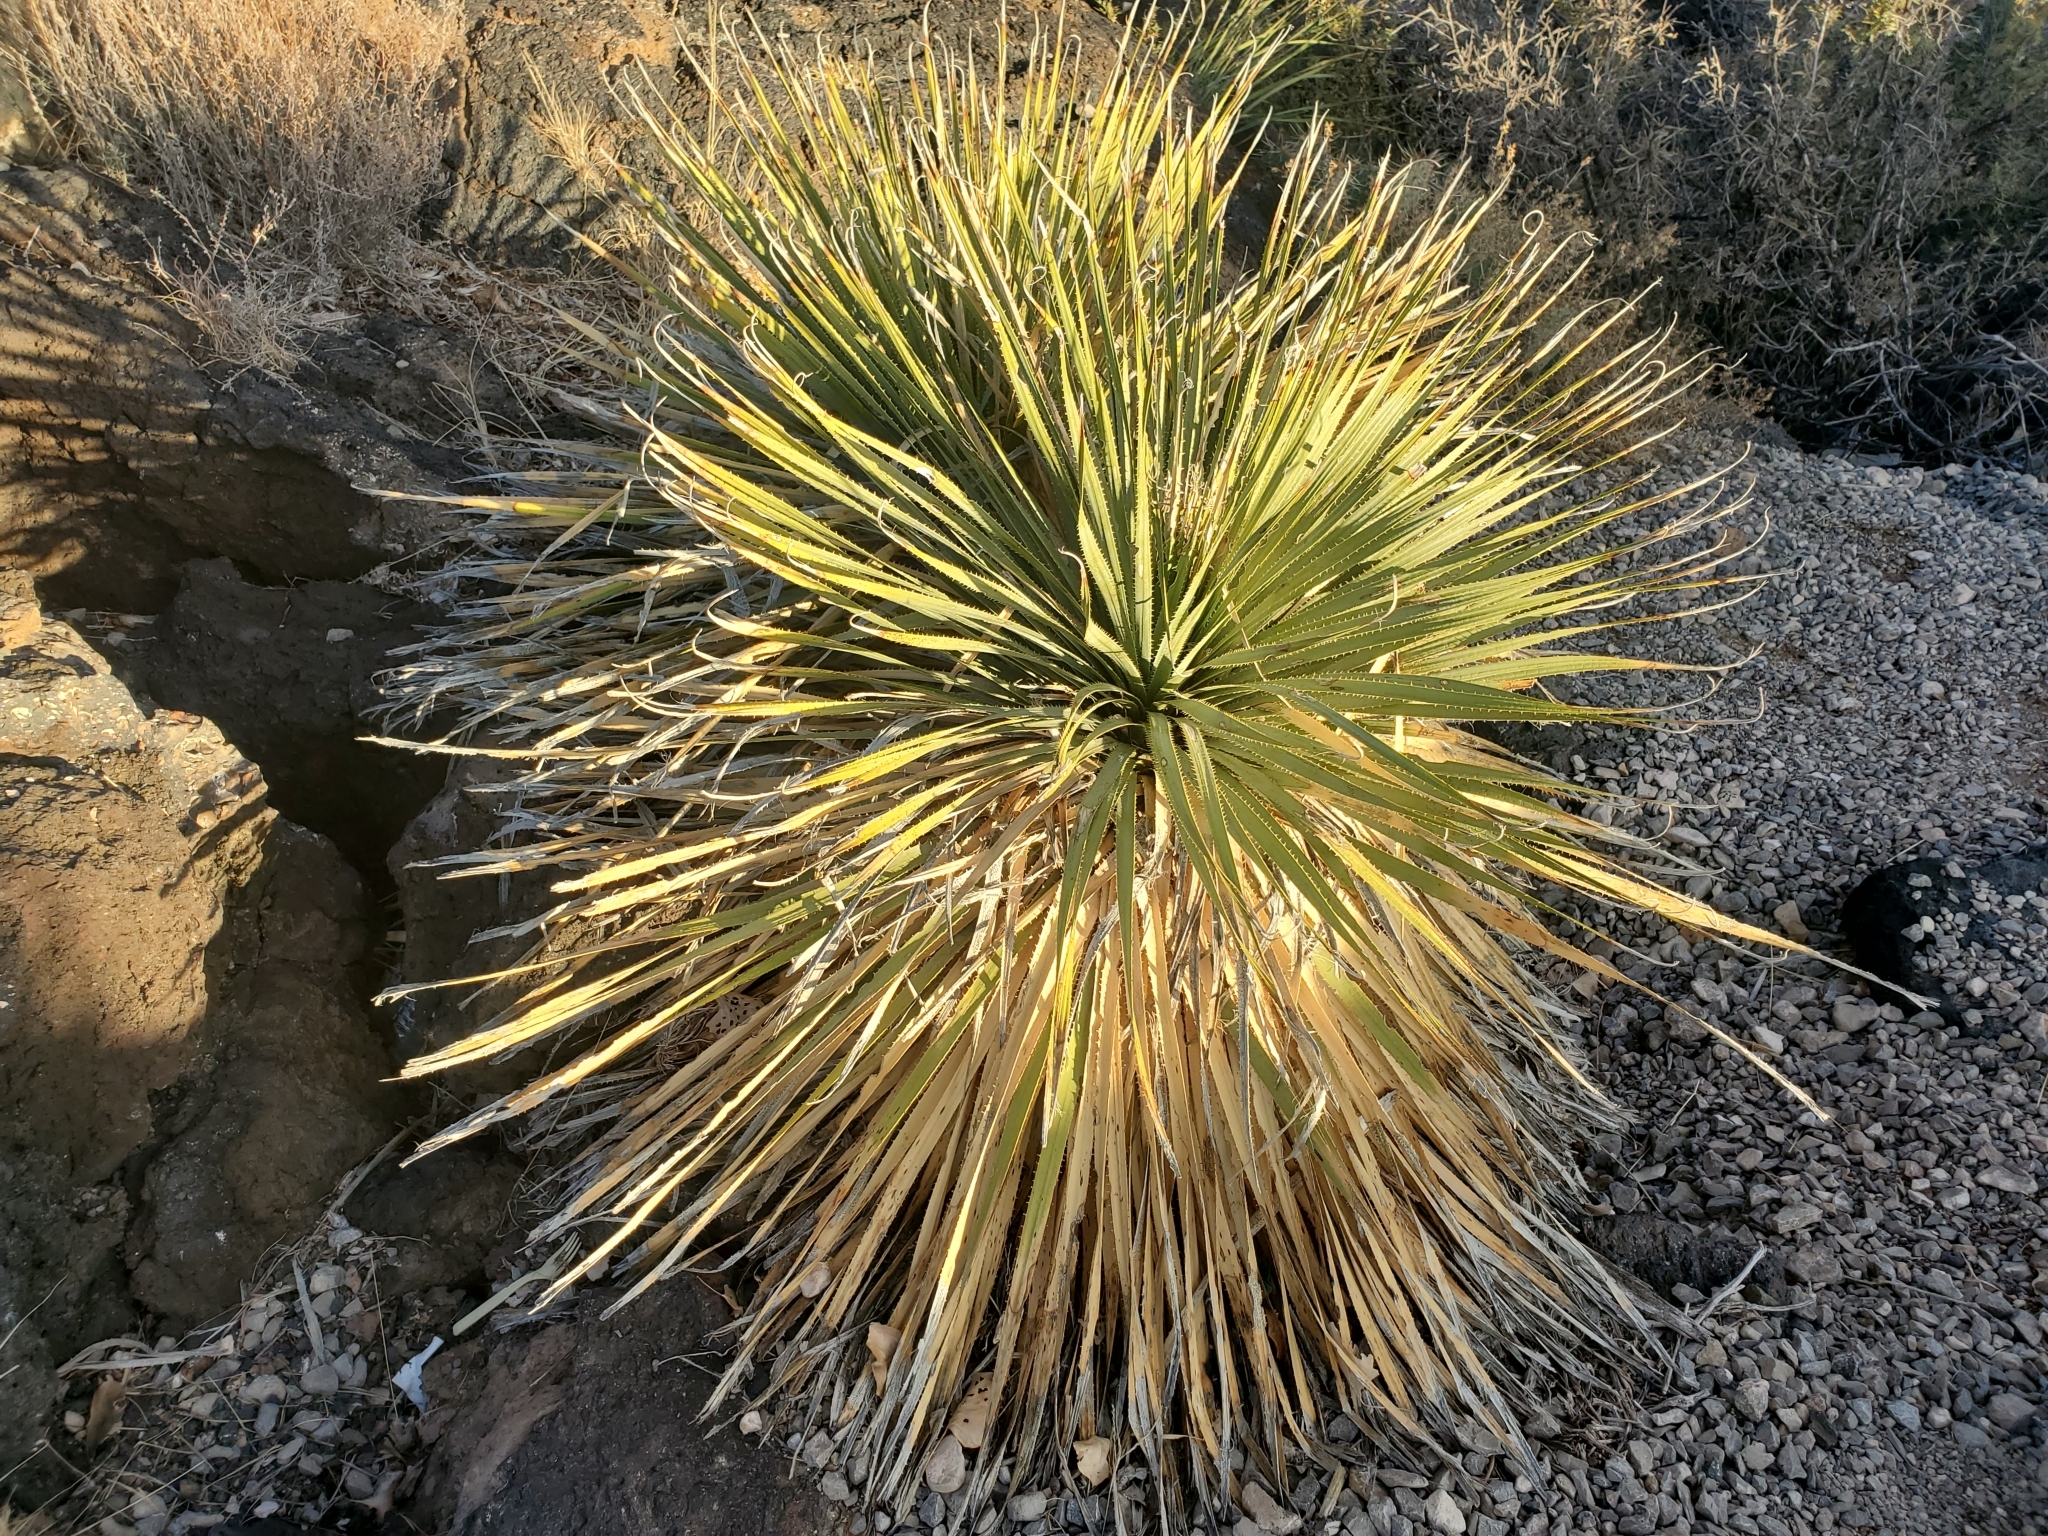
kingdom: Plantae
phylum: Tracheophyta
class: Liliopsida
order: Asparagales
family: Asparagaceae
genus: Dasylirion
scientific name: Dasylirion wheeleri
